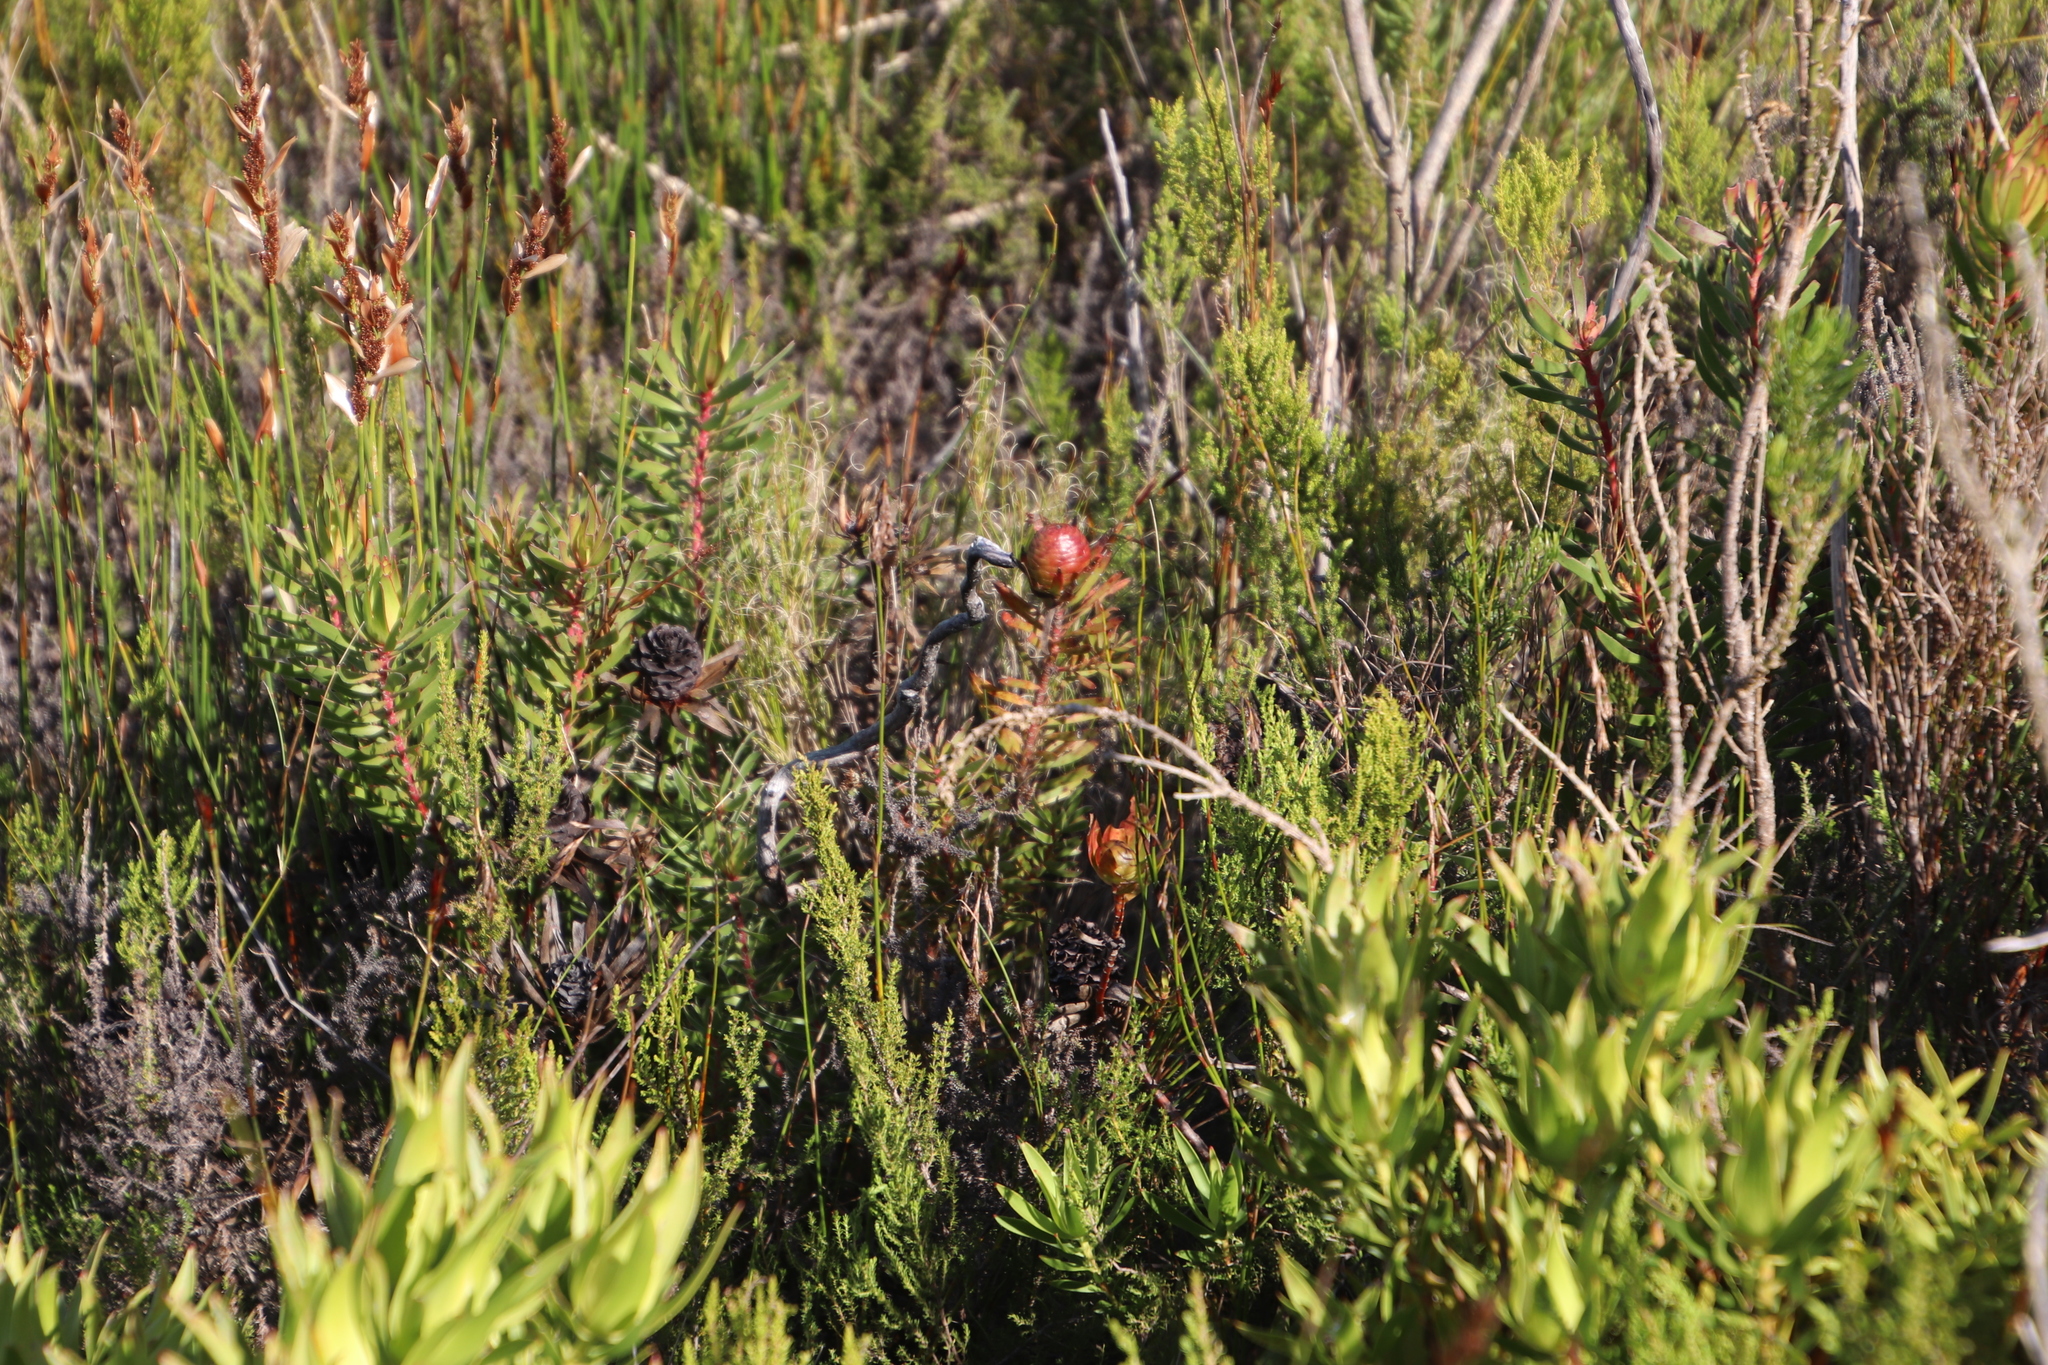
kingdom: Plantae
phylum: Tracheophyta
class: Magnoliopsida
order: Proteales
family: Proteaceae
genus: Leucadendron
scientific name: Leucadendron spissifolium
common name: Spear-leaf conebush
